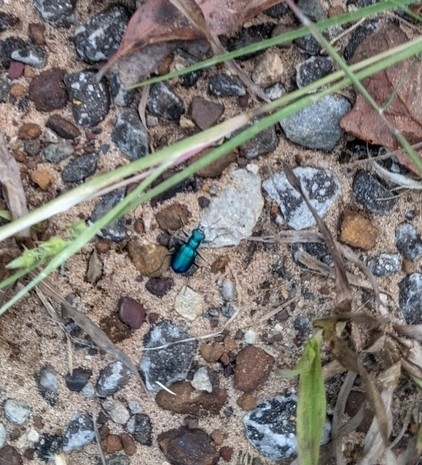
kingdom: Animalia
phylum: Arthropoda
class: Insecta
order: Coleoptera
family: Carabidae
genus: Cicindela
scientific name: Cicindela scutellaris
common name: Festive tiger beetle
